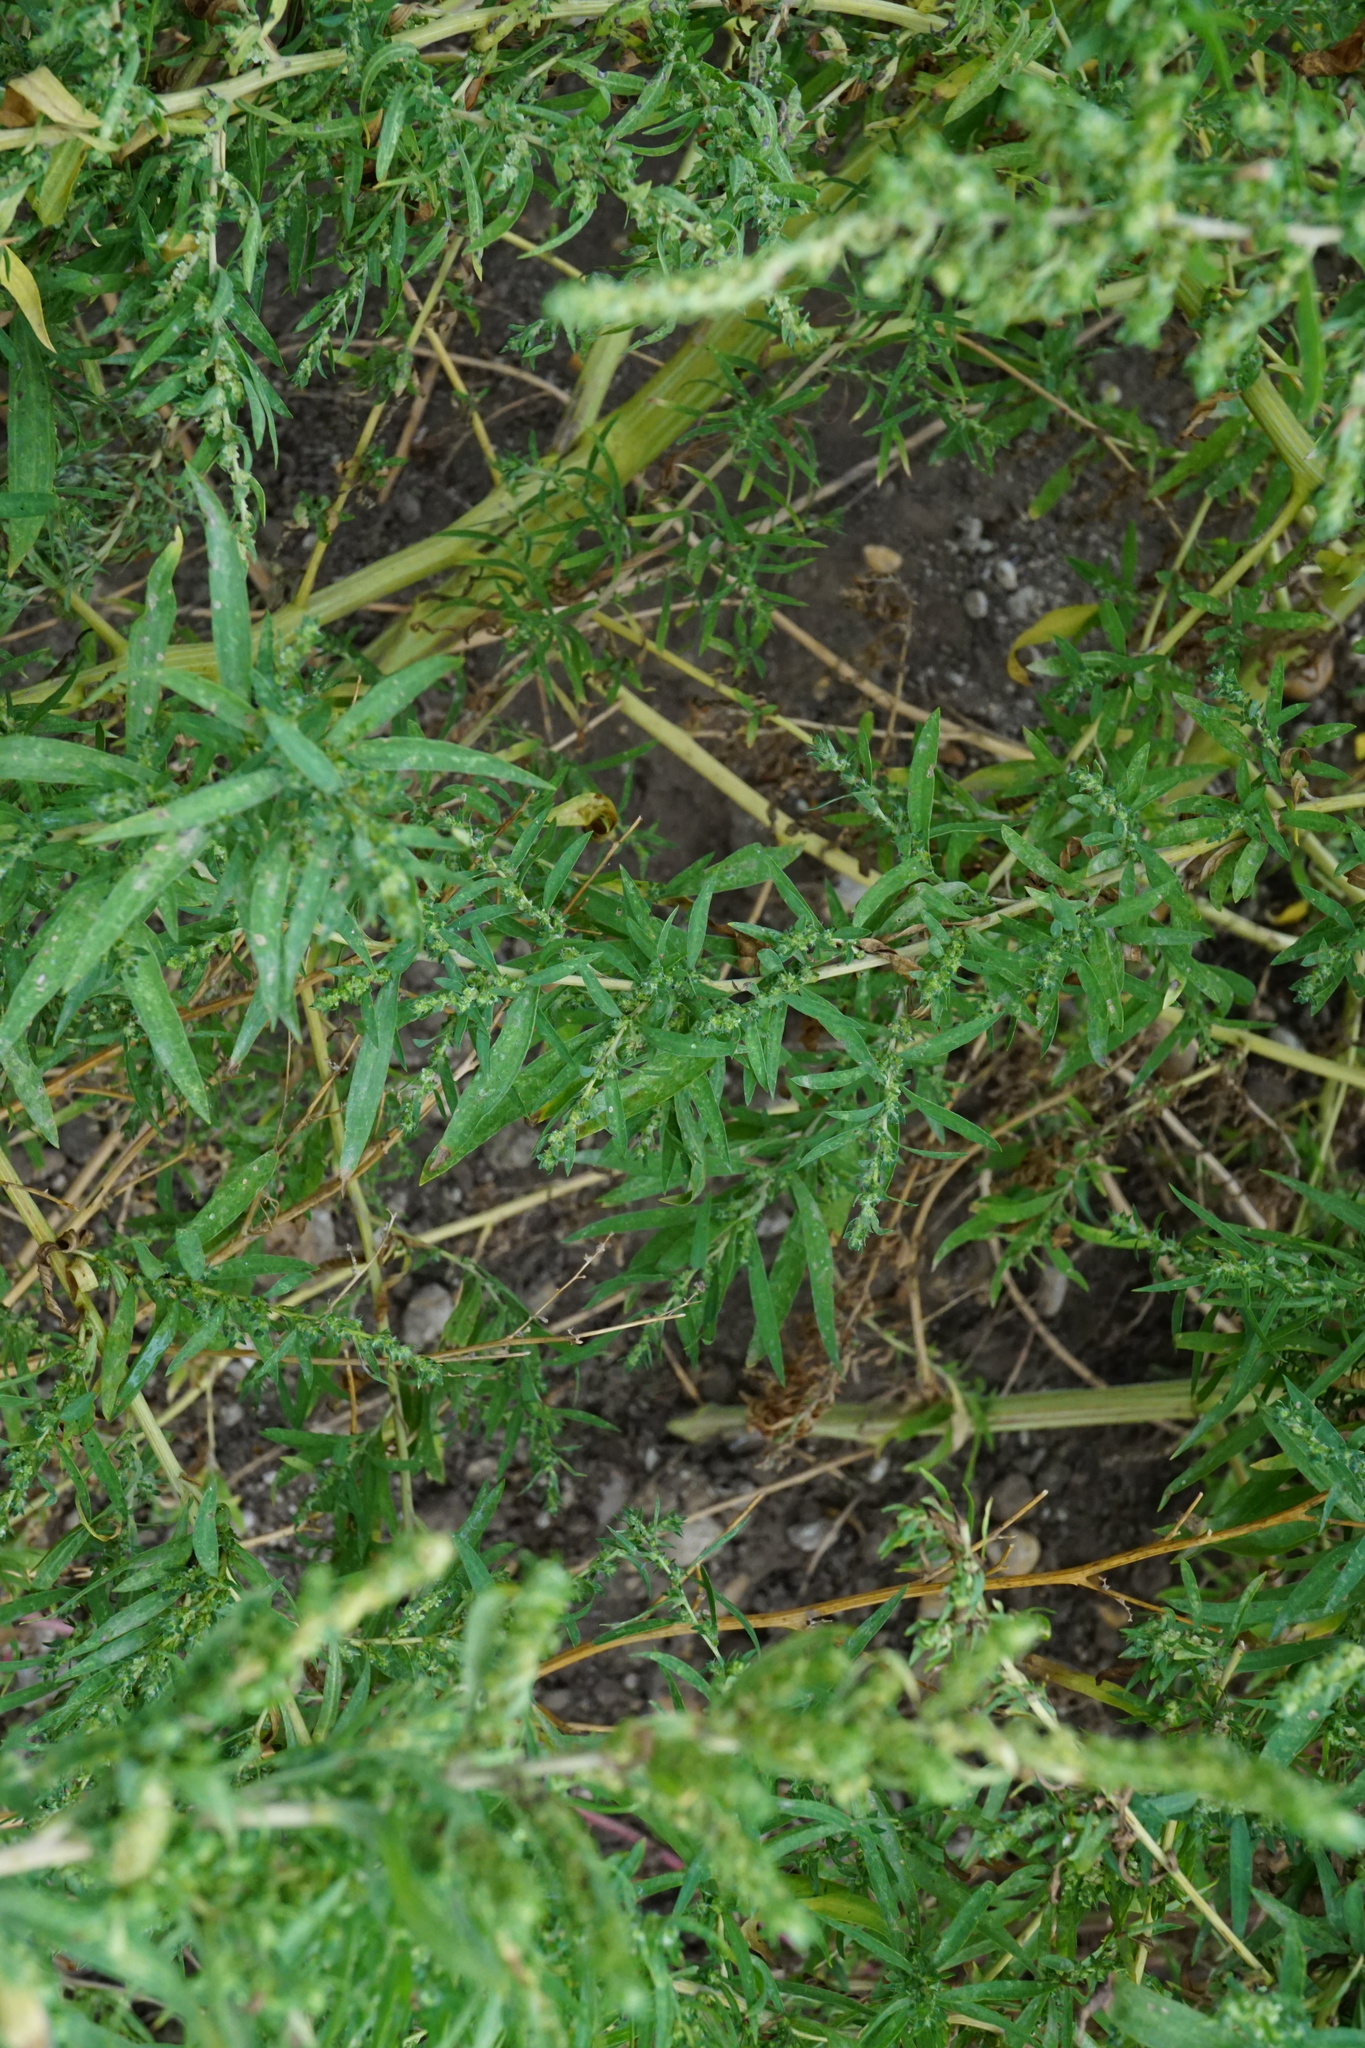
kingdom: Plantae
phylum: Tracheophyta
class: Magnoliopsida
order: Caryophyllales
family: Amaranthaceae
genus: Bassia
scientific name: Bassia scoparia
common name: Belvedere
